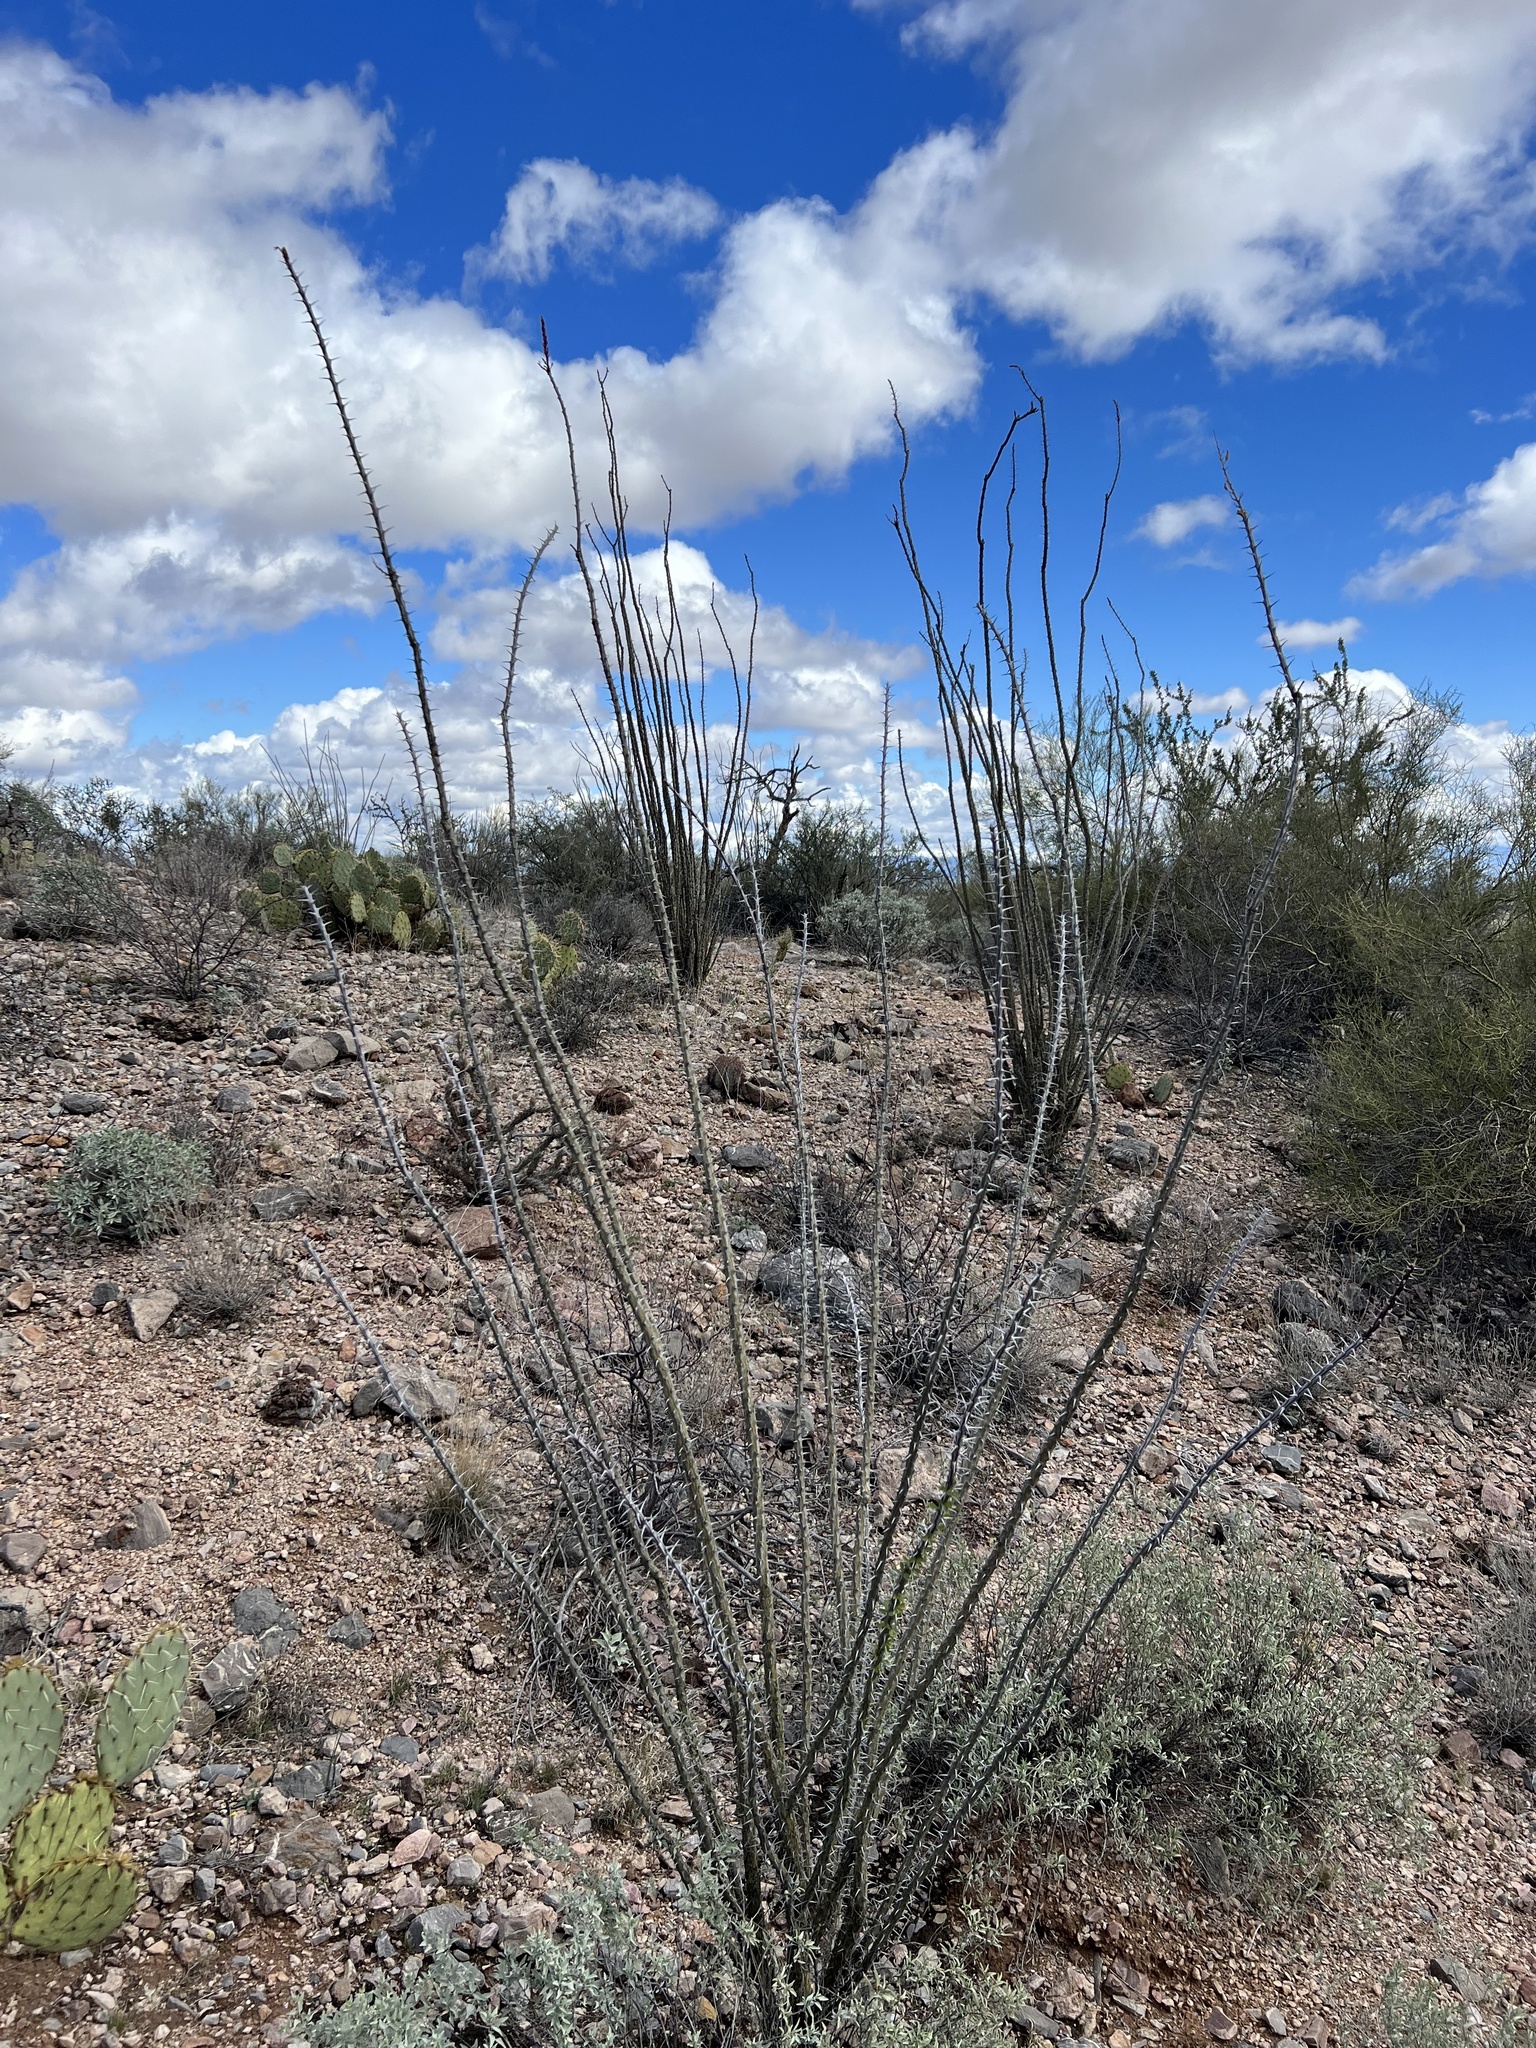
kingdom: Plantae
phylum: Tracheophyta
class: Magnoliopsida
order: Ericales
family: Fouquieriaceae
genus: Fouquieria
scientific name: Fouquieria splendens
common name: Vine-cactus
